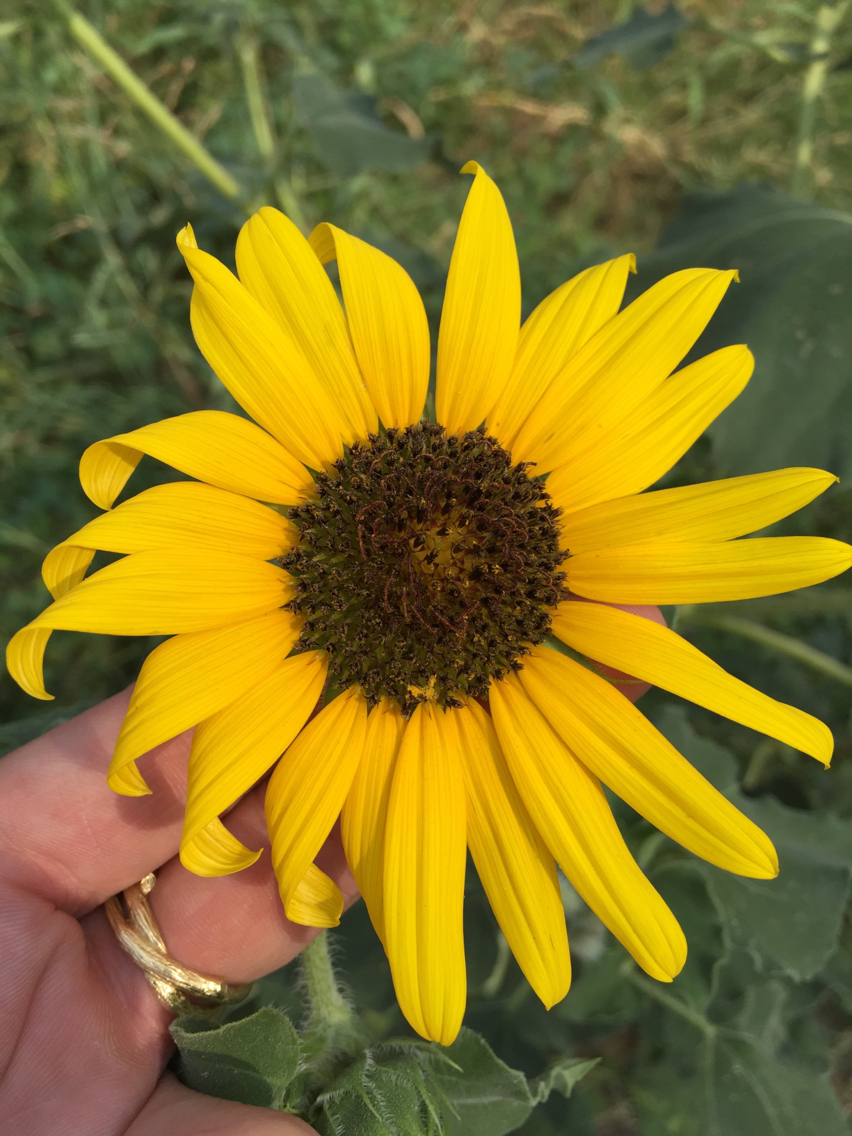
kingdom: Plantae
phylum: Tracheophyta
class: Magnoliopsida
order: Asterales
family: Asteraceae
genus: Helianthus
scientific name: Helianthus annuus
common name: Sunflower
